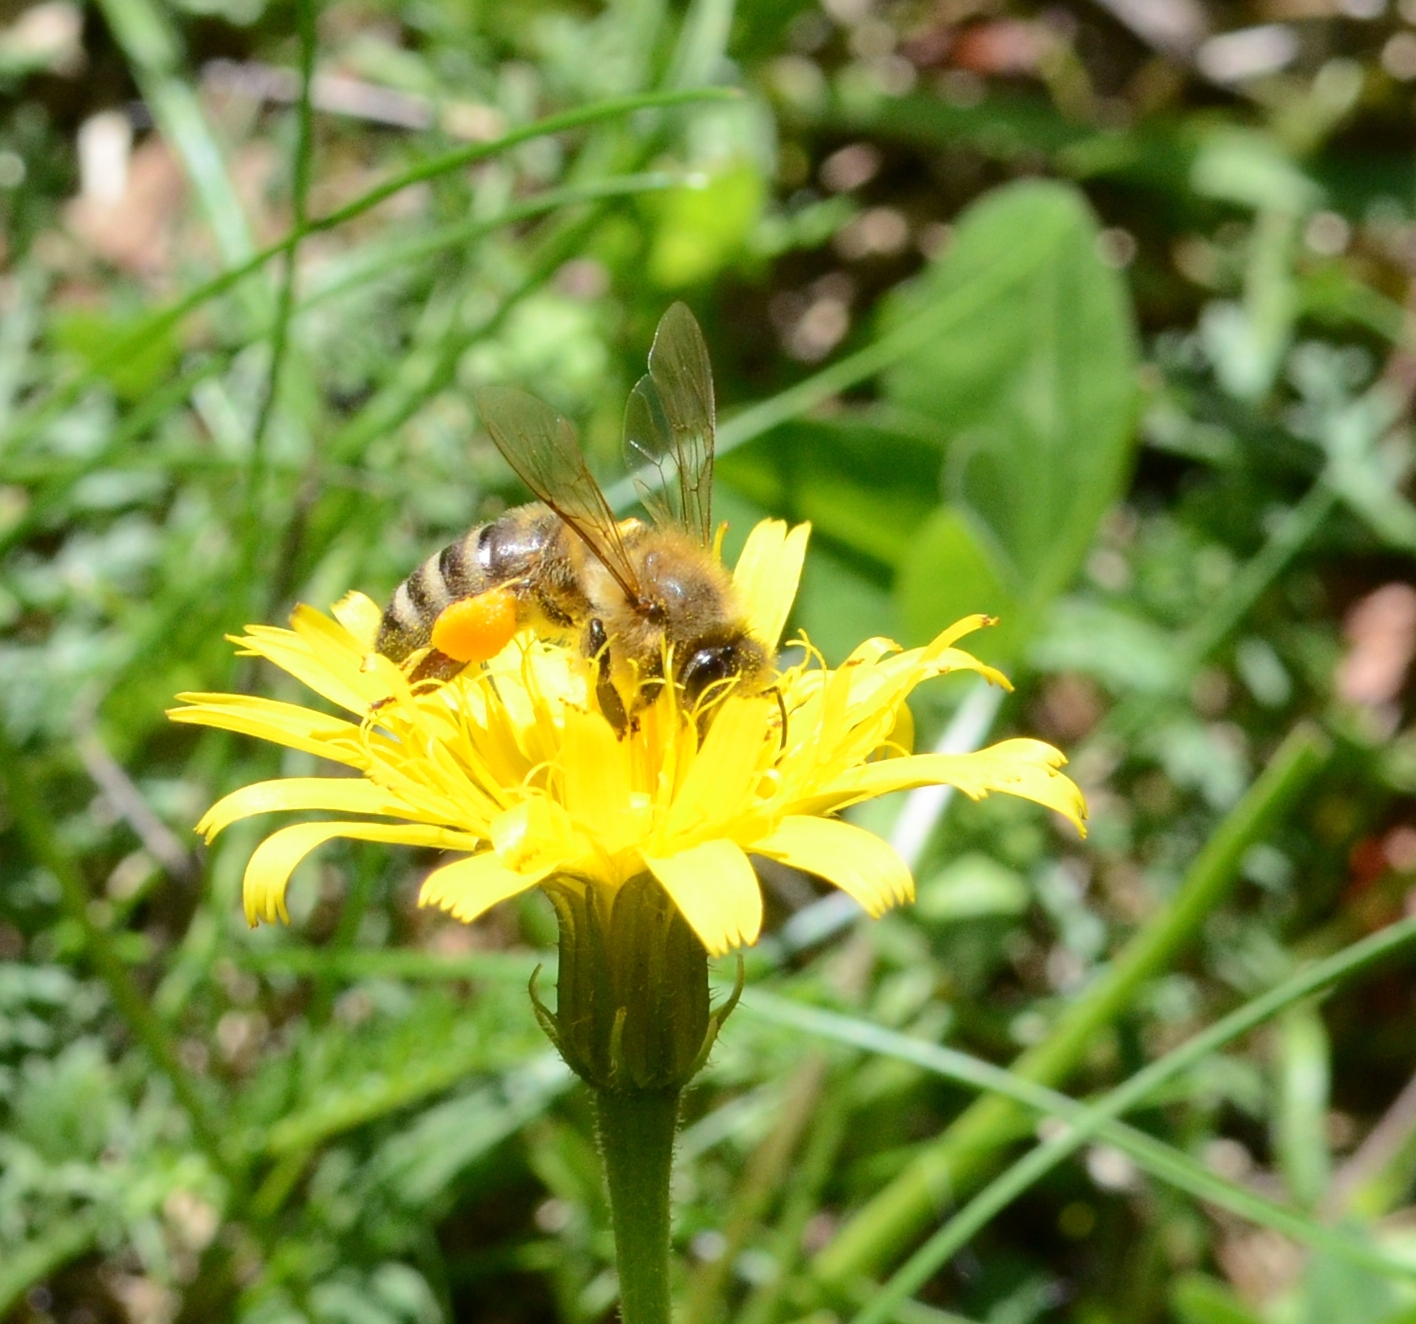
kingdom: Animalia
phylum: Arthropoda
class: Insecta
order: Hymenoptera
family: Apidae
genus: Apis
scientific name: Apis mellifera
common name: Honey bee
